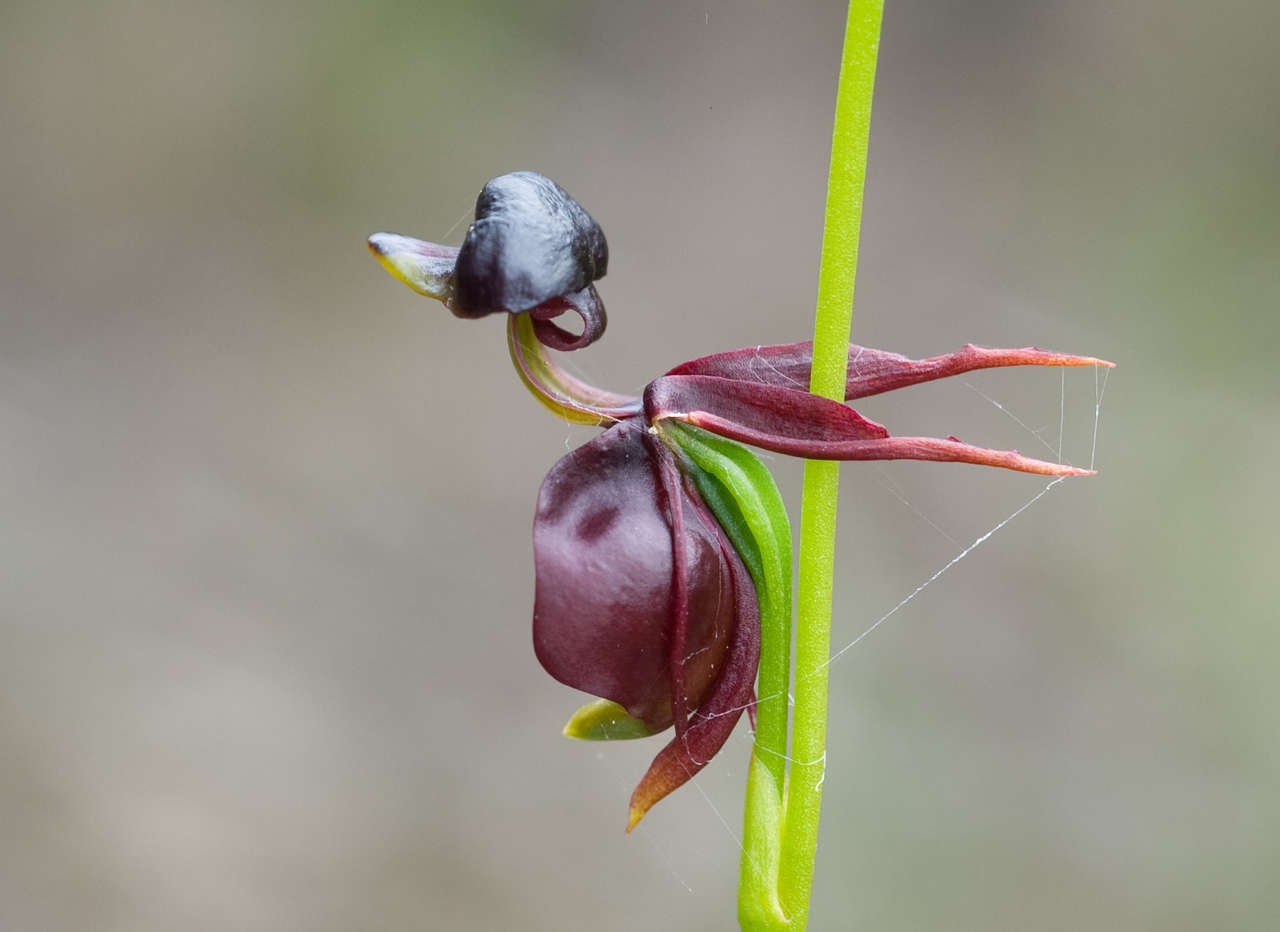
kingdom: Plantae
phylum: Tracheophyta
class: Liliopsida
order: Asparagales
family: Orchidaceae
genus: Caleana
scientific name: Caleana major
